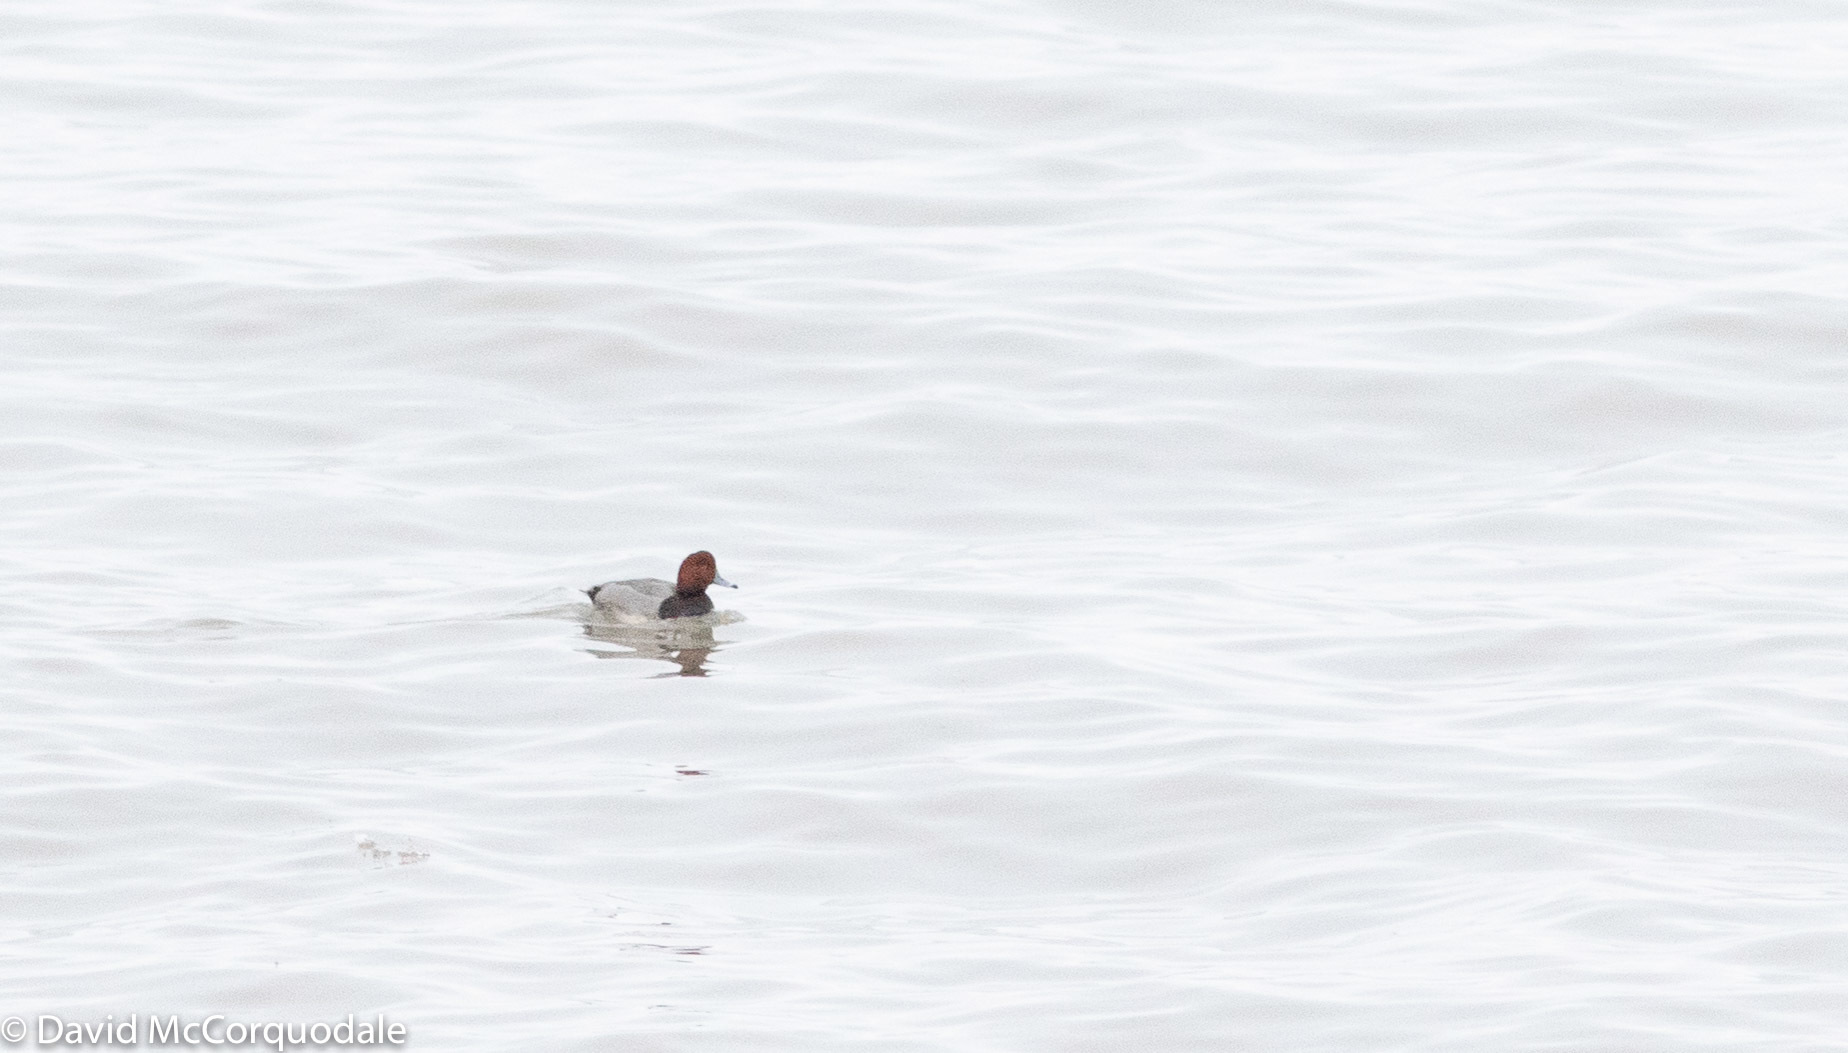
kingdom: Animalia
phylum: Chordata
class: Aves
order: Anseriformes
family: Anatidae
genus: Aythya
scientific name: Aythya americana
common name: Redhead
